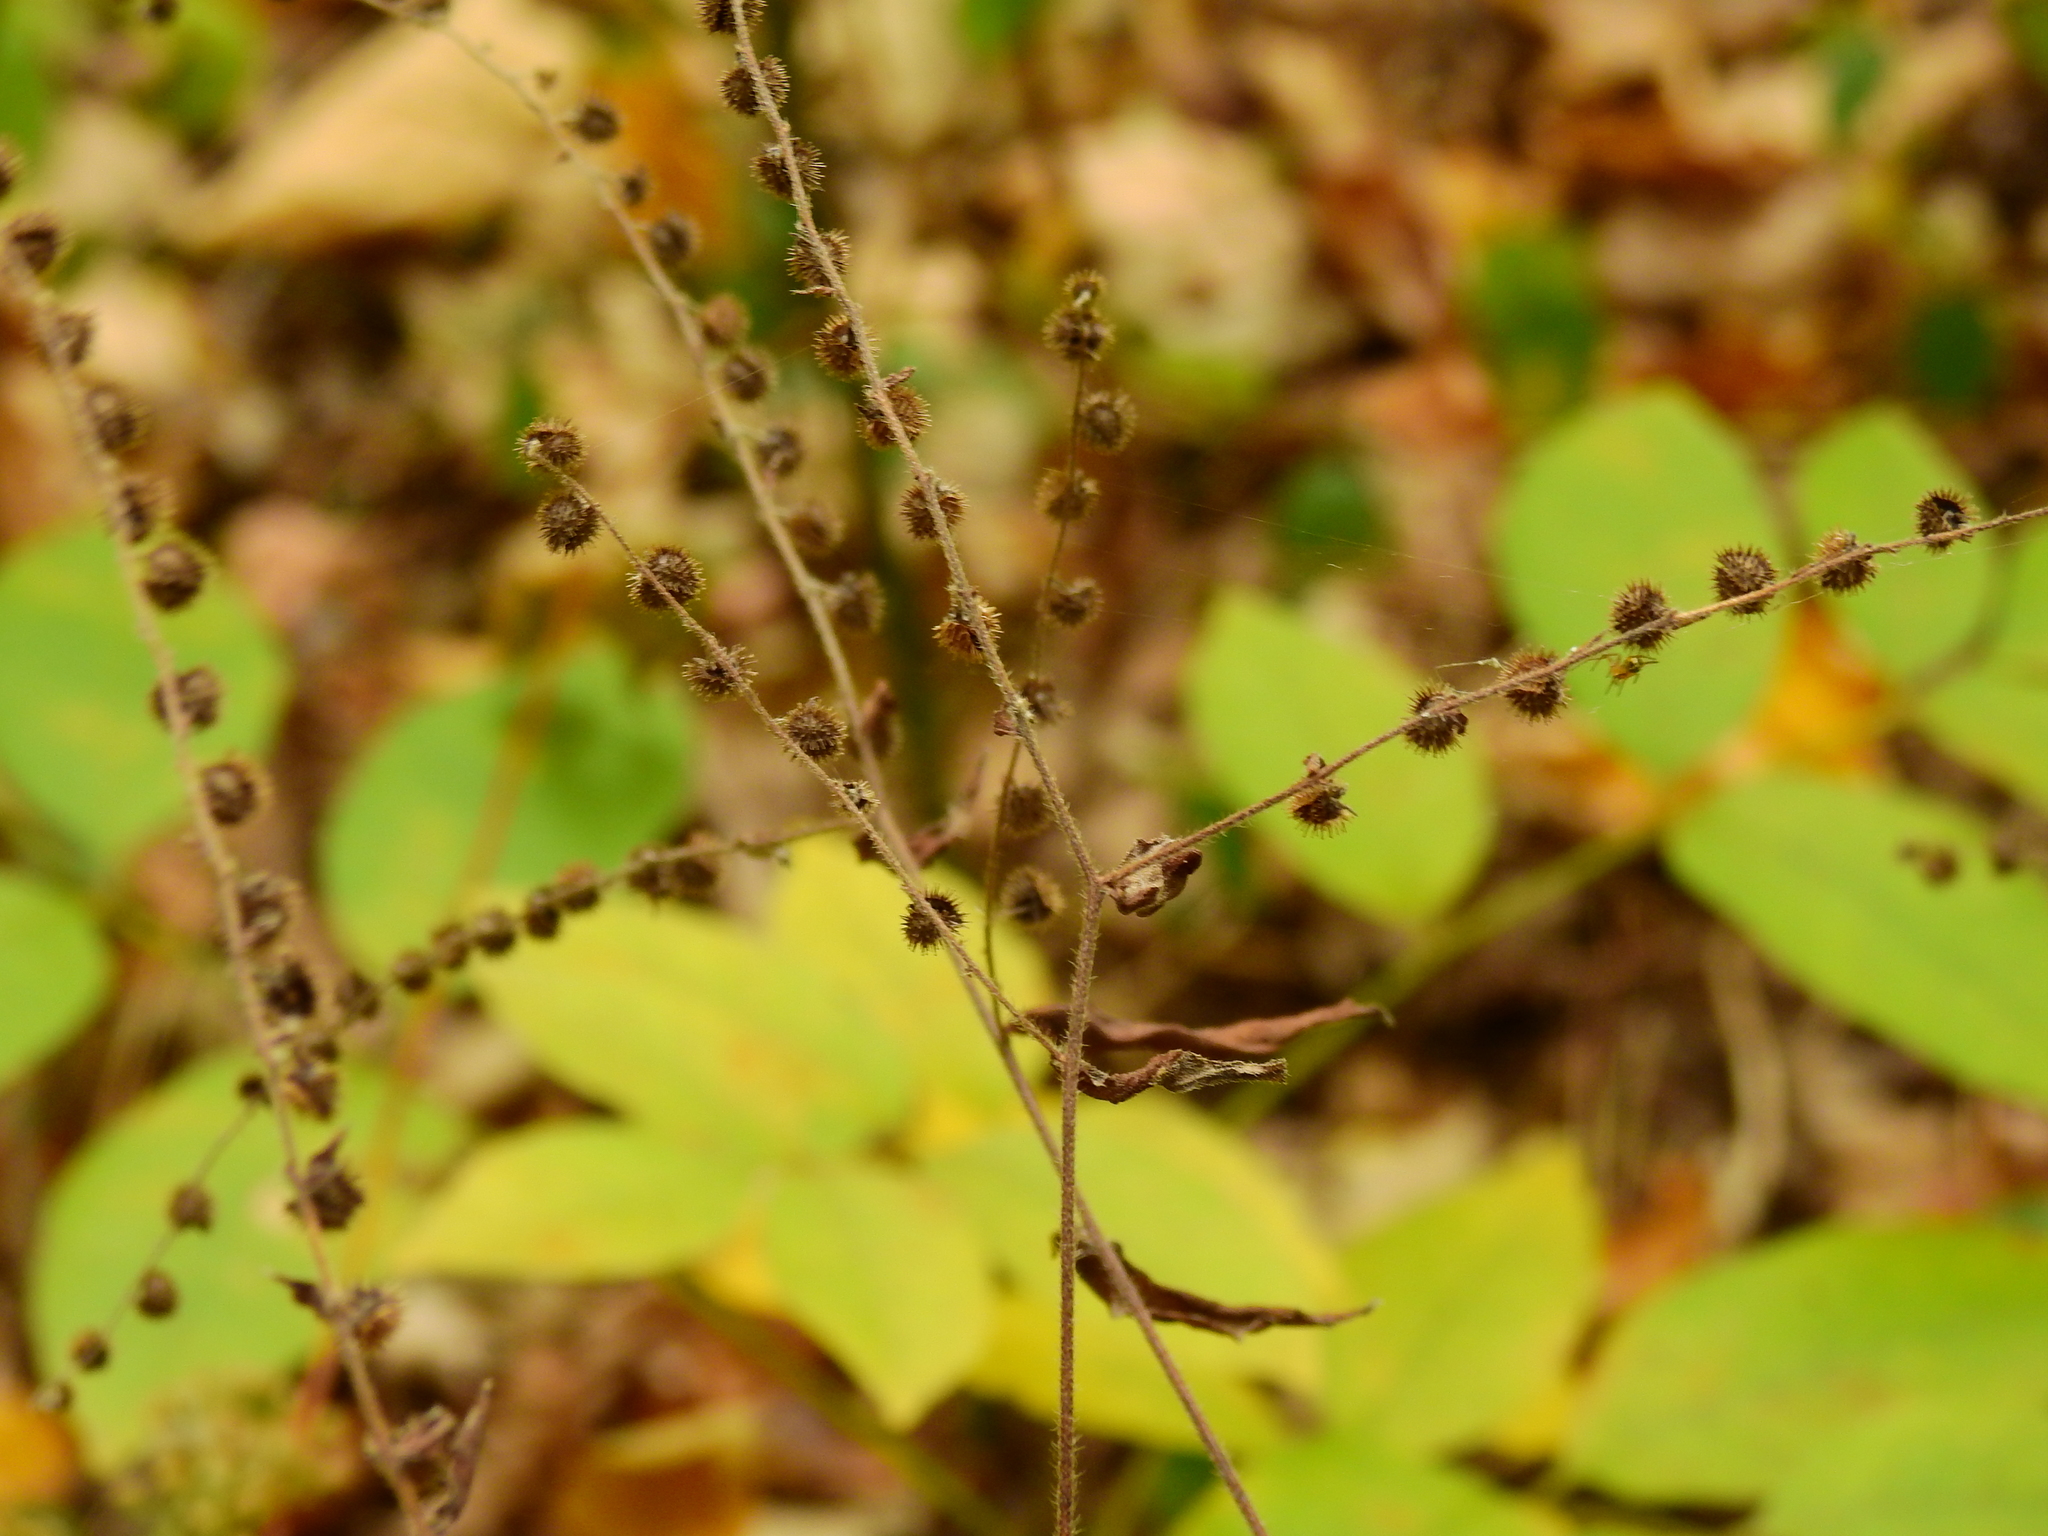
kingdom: Plantae
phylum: Tracheophyta
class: Magnoliopsida
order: Boraginales
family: Boraginaceae
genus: Hackelia
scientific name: Hackelia virginiana
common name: Beggar's-lice
